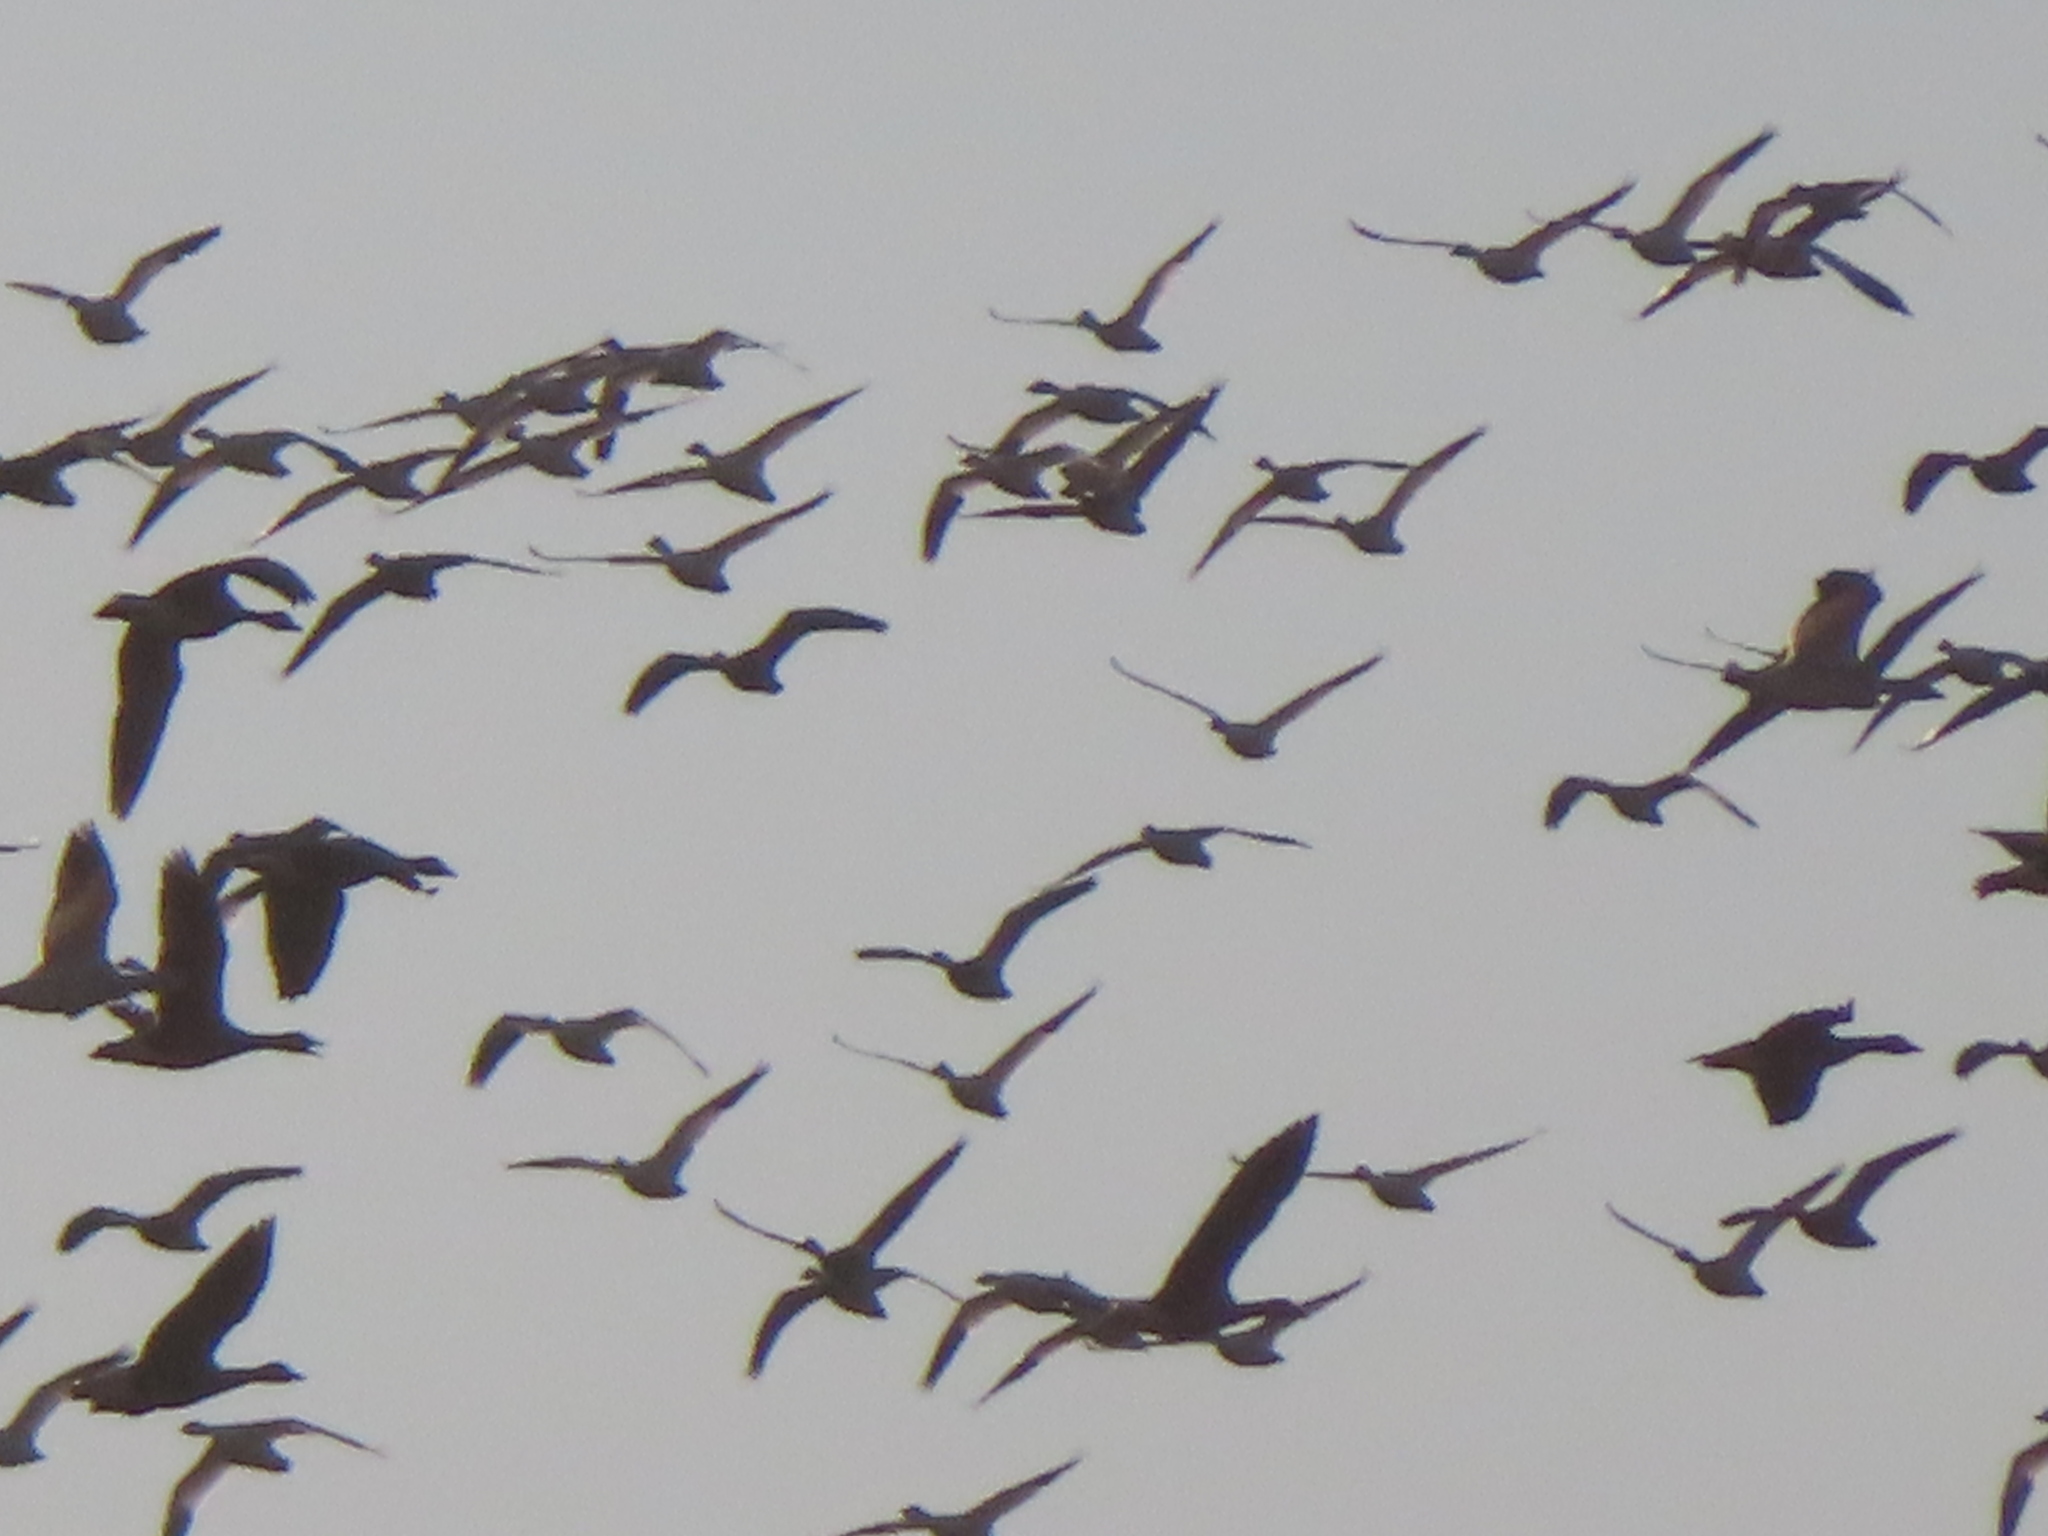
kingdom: Animalia
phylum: Chordata
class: Aves
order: Anseriformes
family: Anatidae
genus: Anser
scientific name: Anser caerulescens
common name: Snow goose
